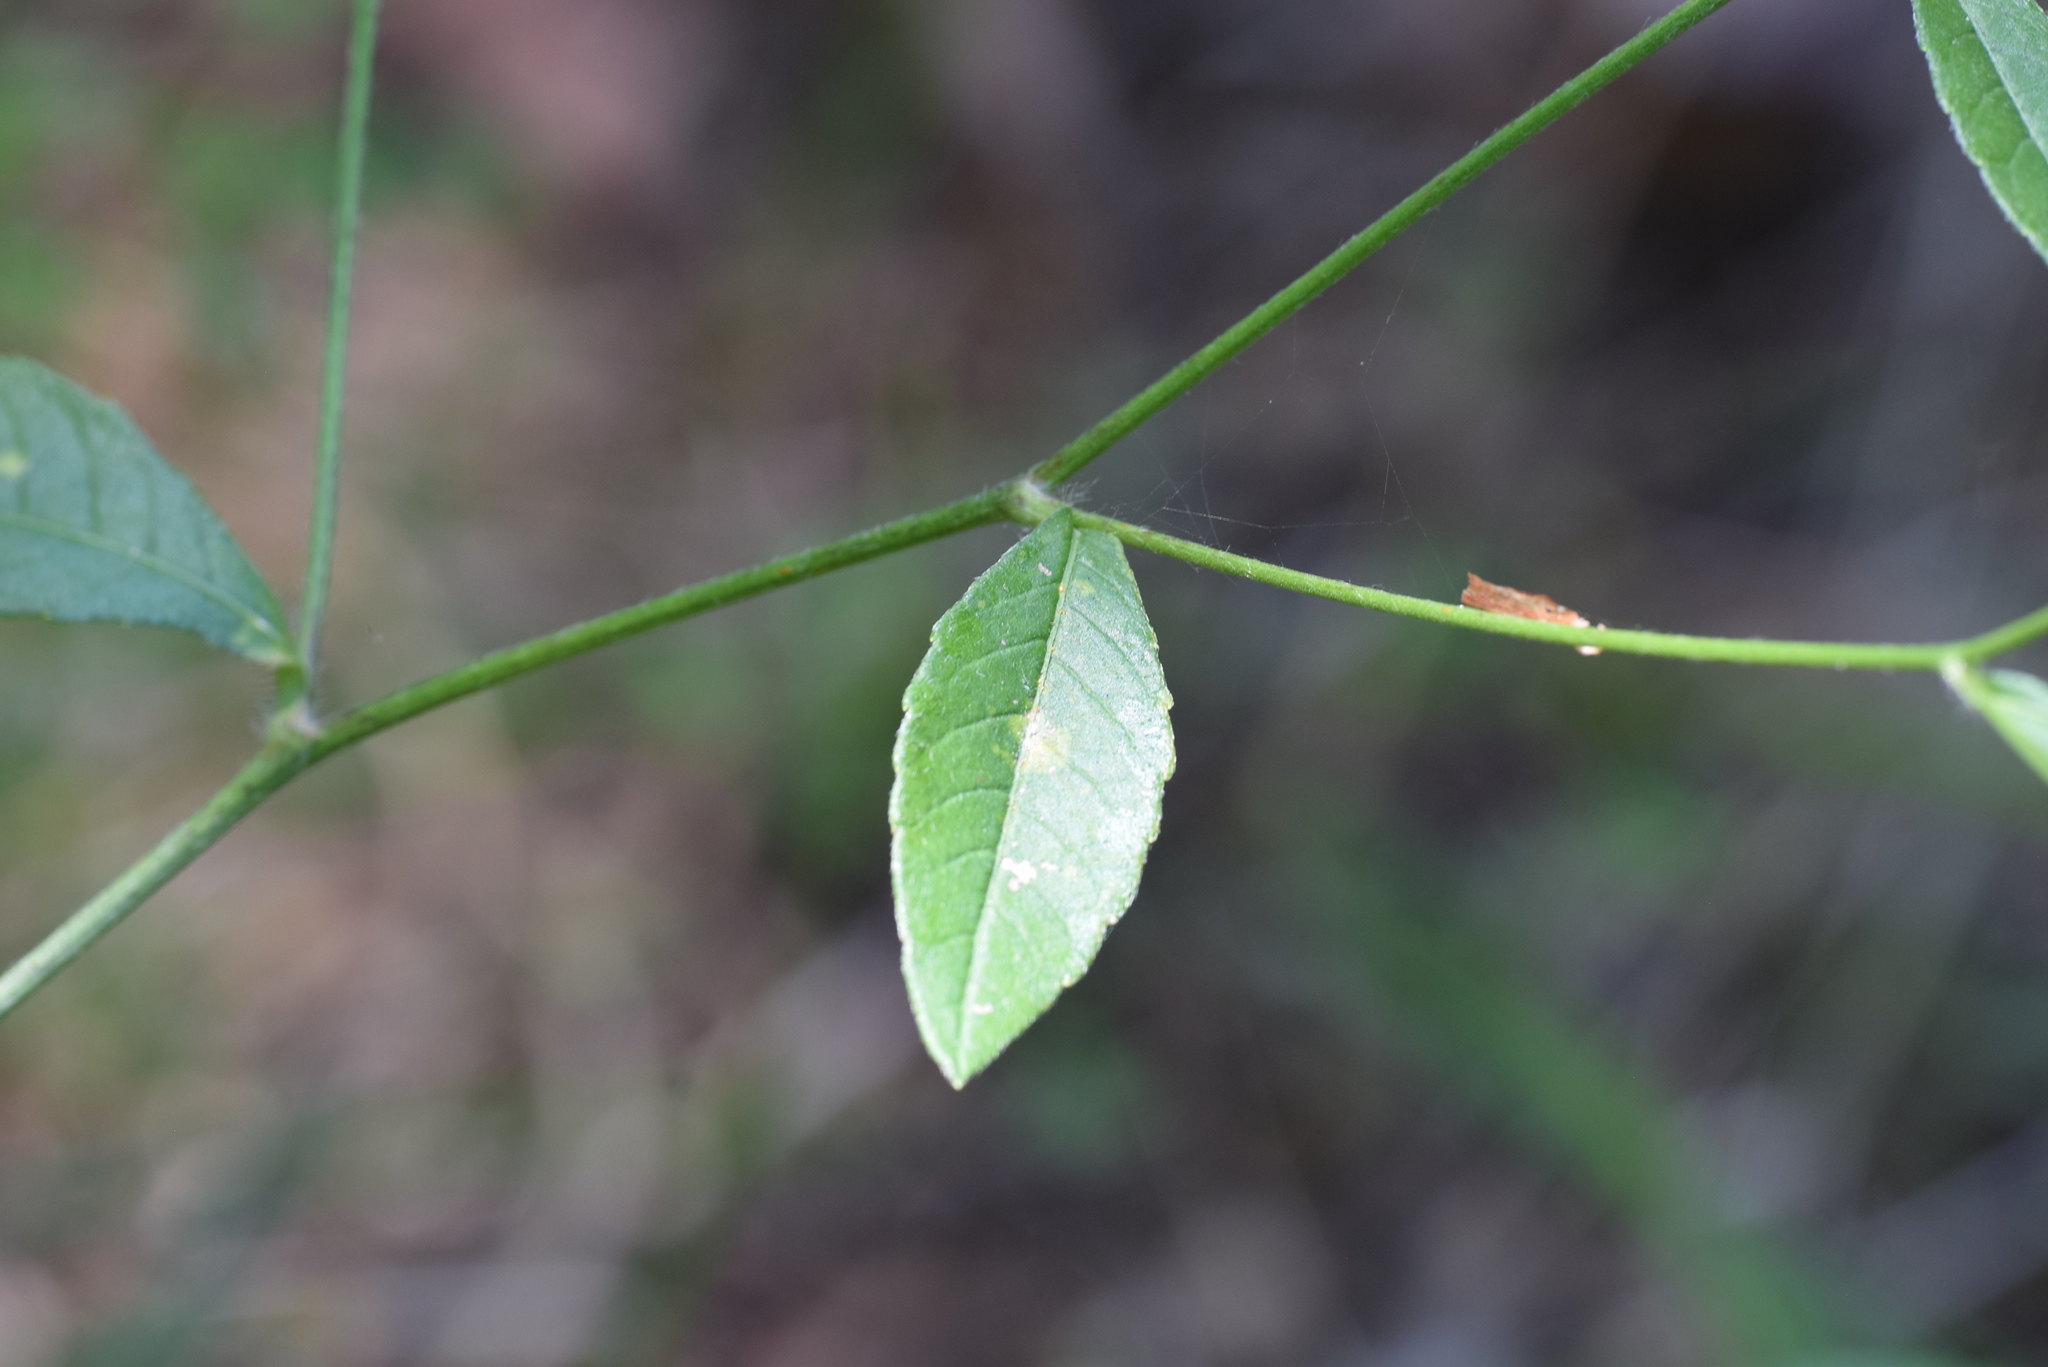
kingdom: Plantae
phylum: Tracheophyta
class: Magnoliopsida
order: Asterales
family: Asteraceae
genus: Elephantopus
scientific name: Elephantopus carolinianus
